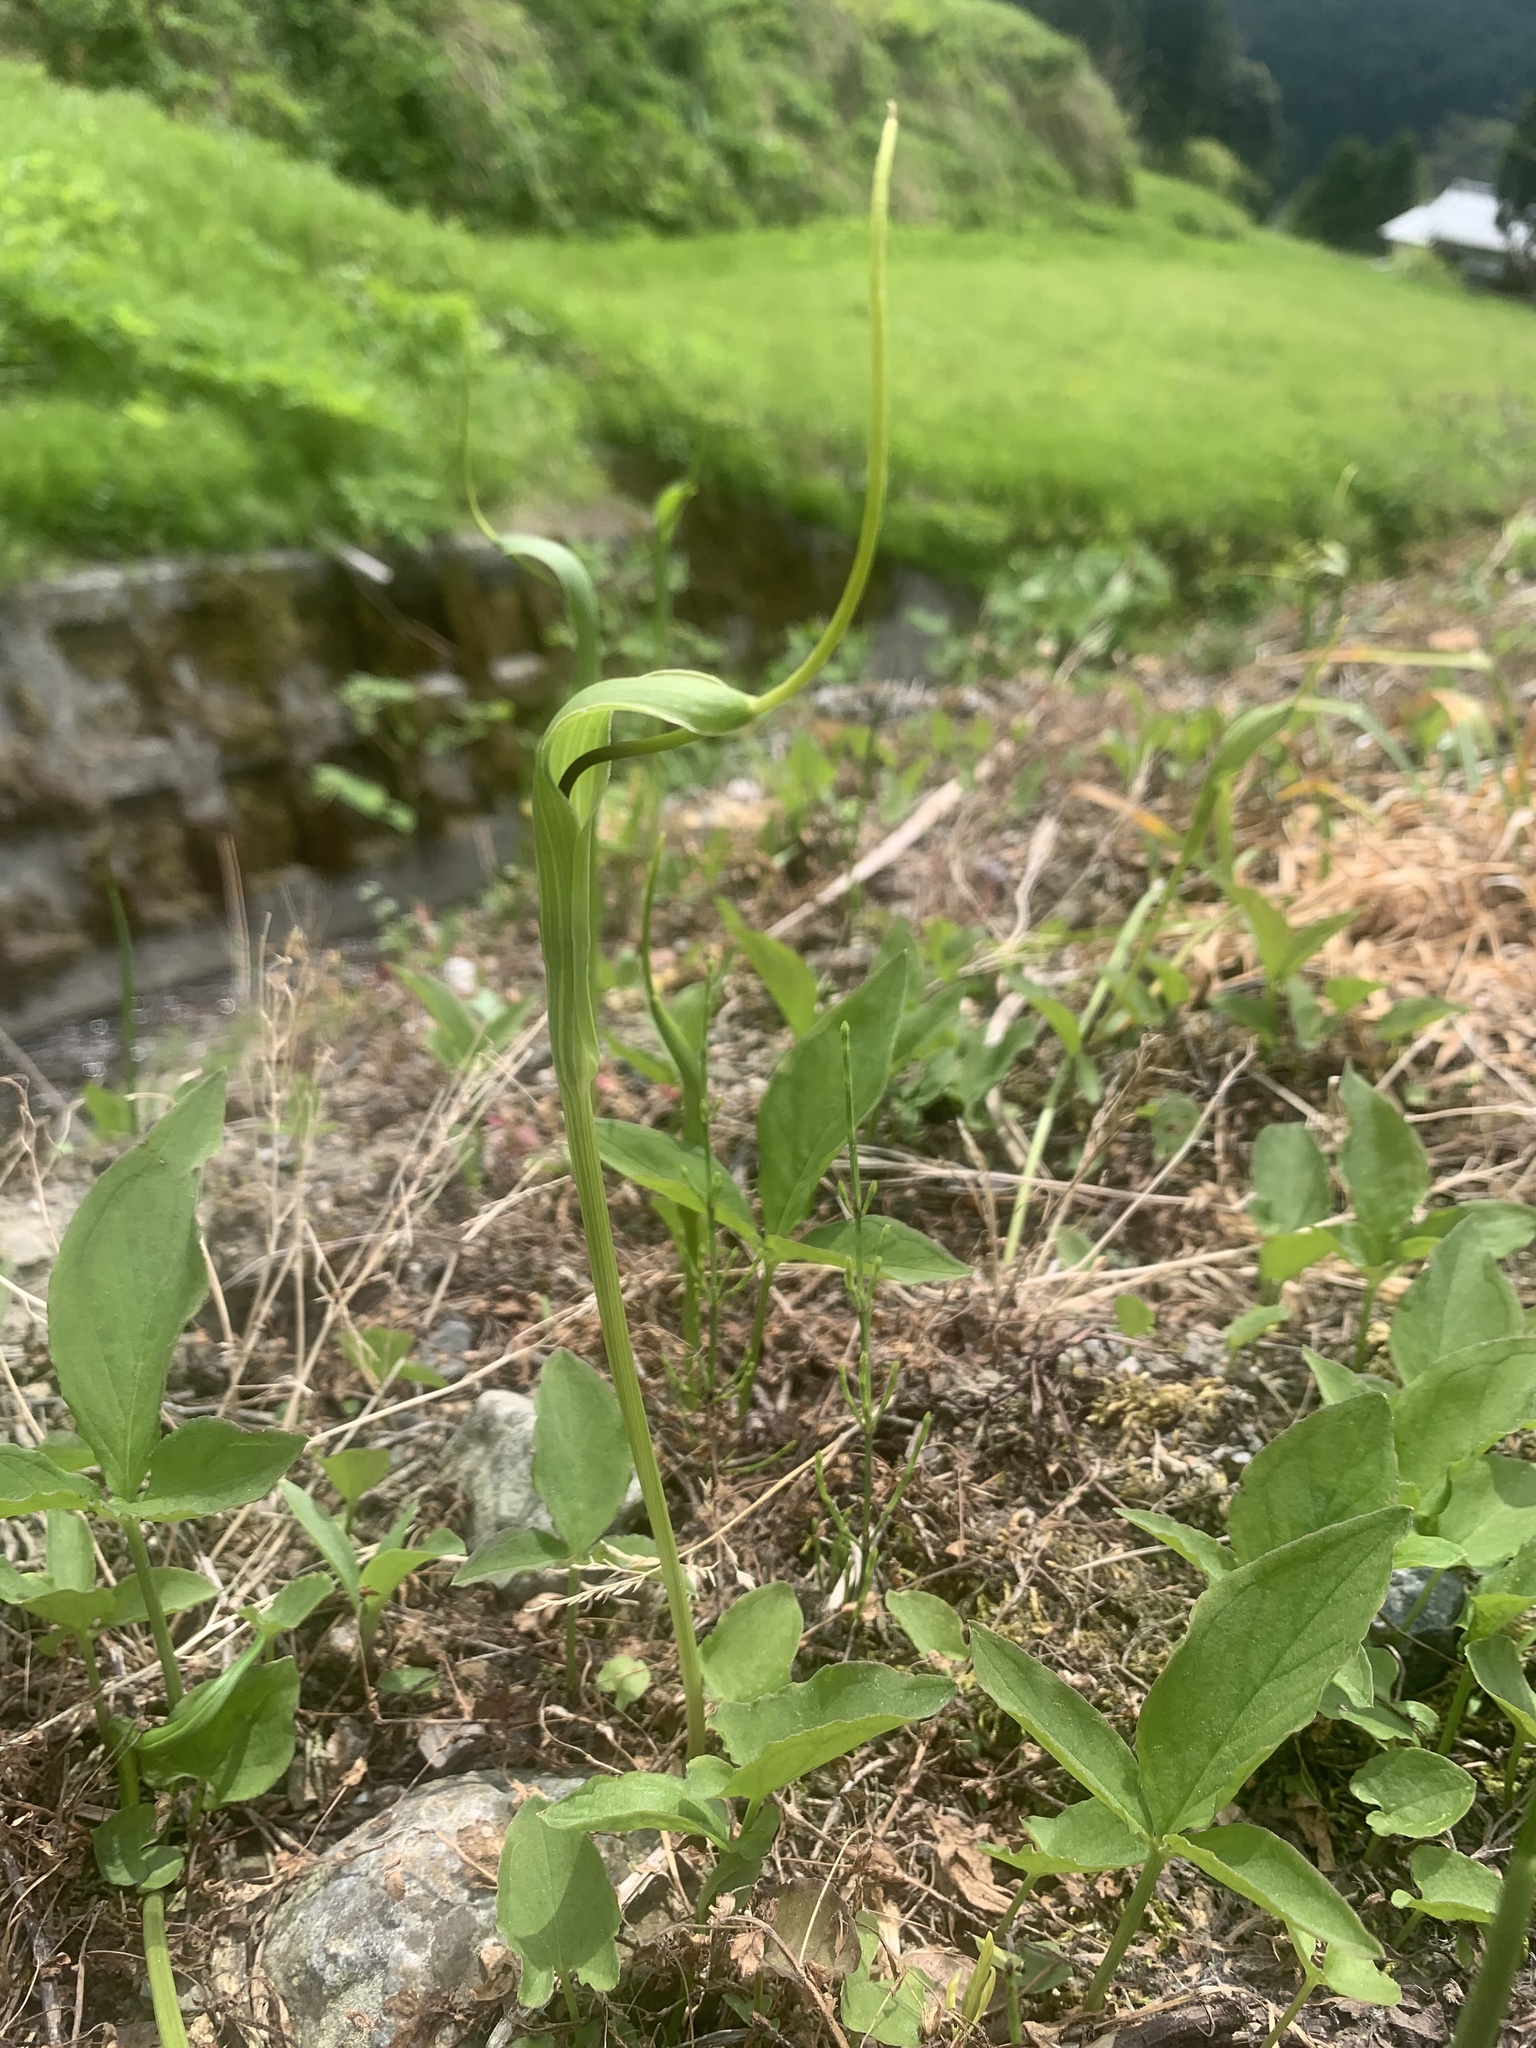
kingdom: Plantae
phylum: Tracheophyta
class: Liliopsida
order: Alismatales
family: Araceae
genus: Pinellia
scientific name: Pinellia ternata
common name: Pinellia
